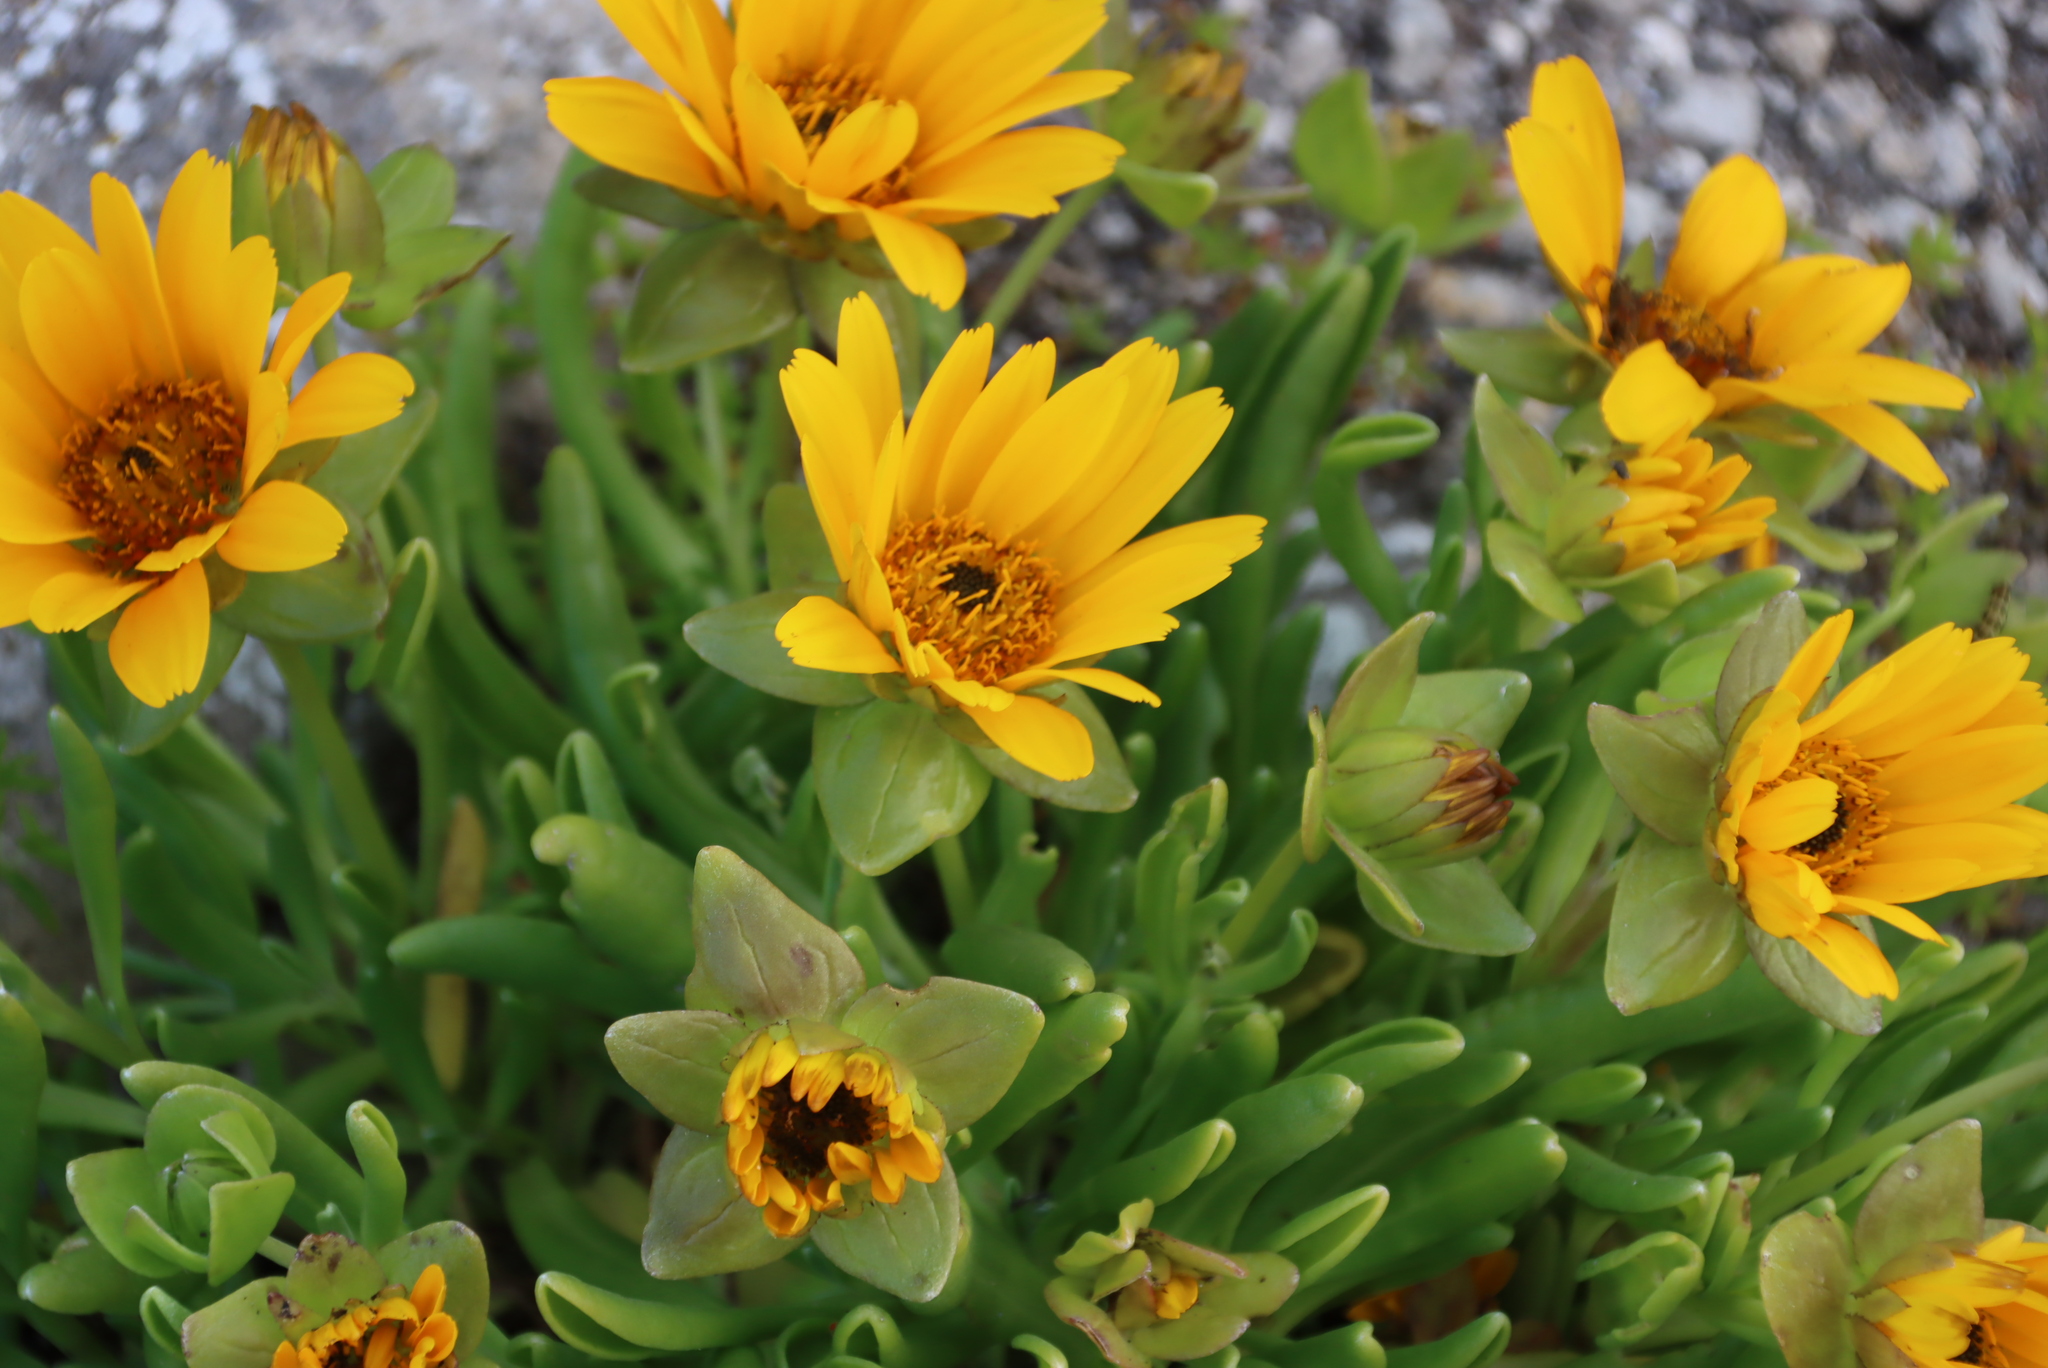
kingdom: Plantae
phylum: Tracheophyta
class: Magnoliopsida
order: Asterales
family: Asteraceae
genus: Didelta
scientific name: Didelta carnosa
